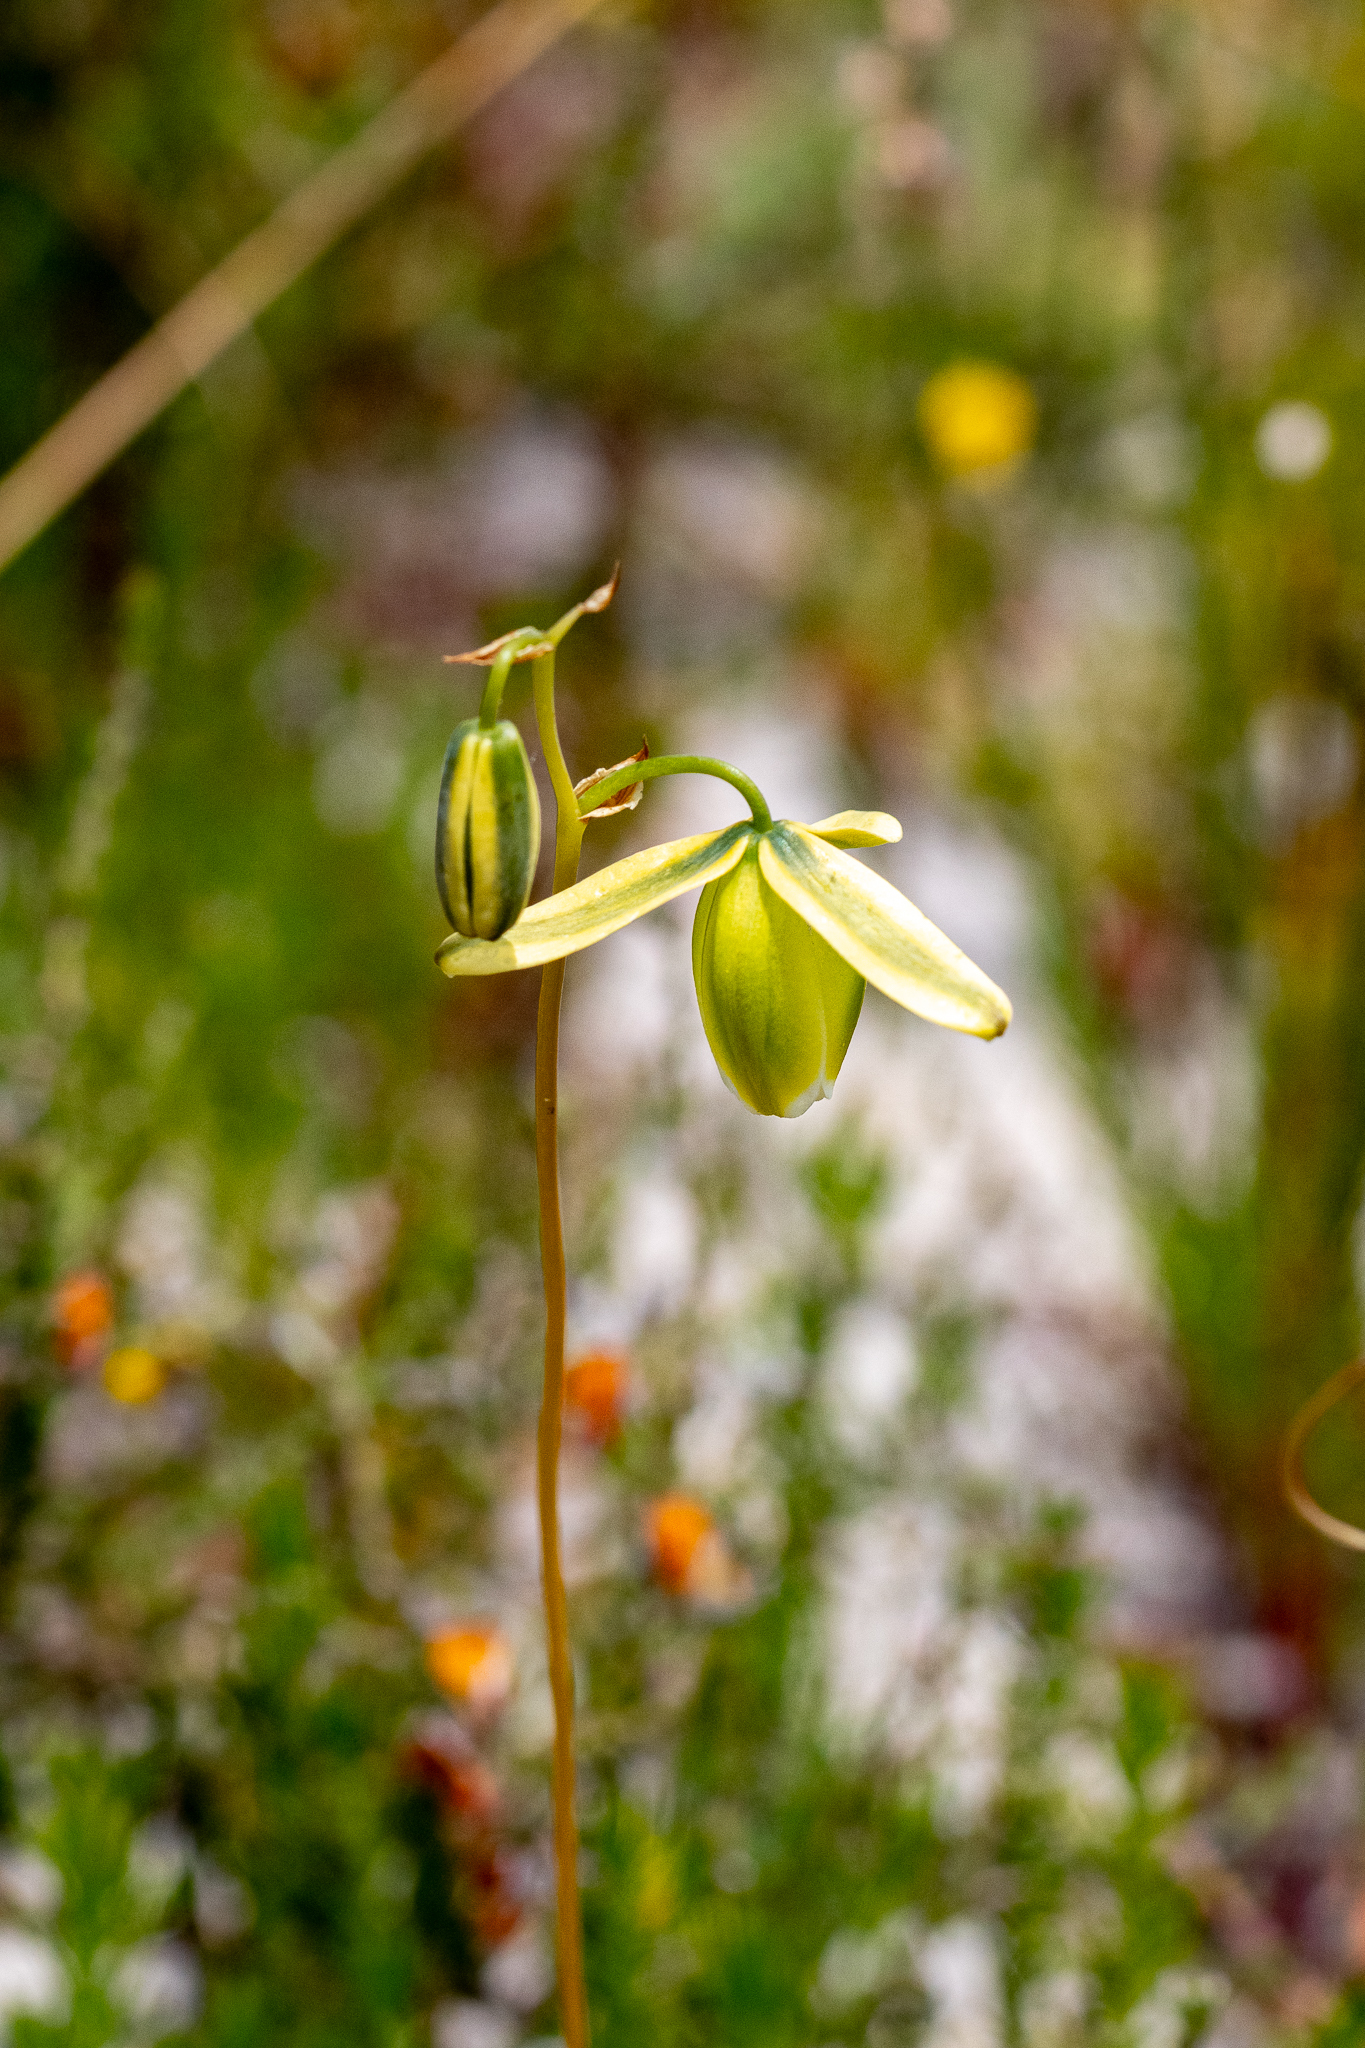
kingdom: Plantae
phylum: Tracheophyta
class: Liliopsida
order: Asparagales
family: Asparagaceae
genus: Albuca
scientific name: Albuca cooperi
